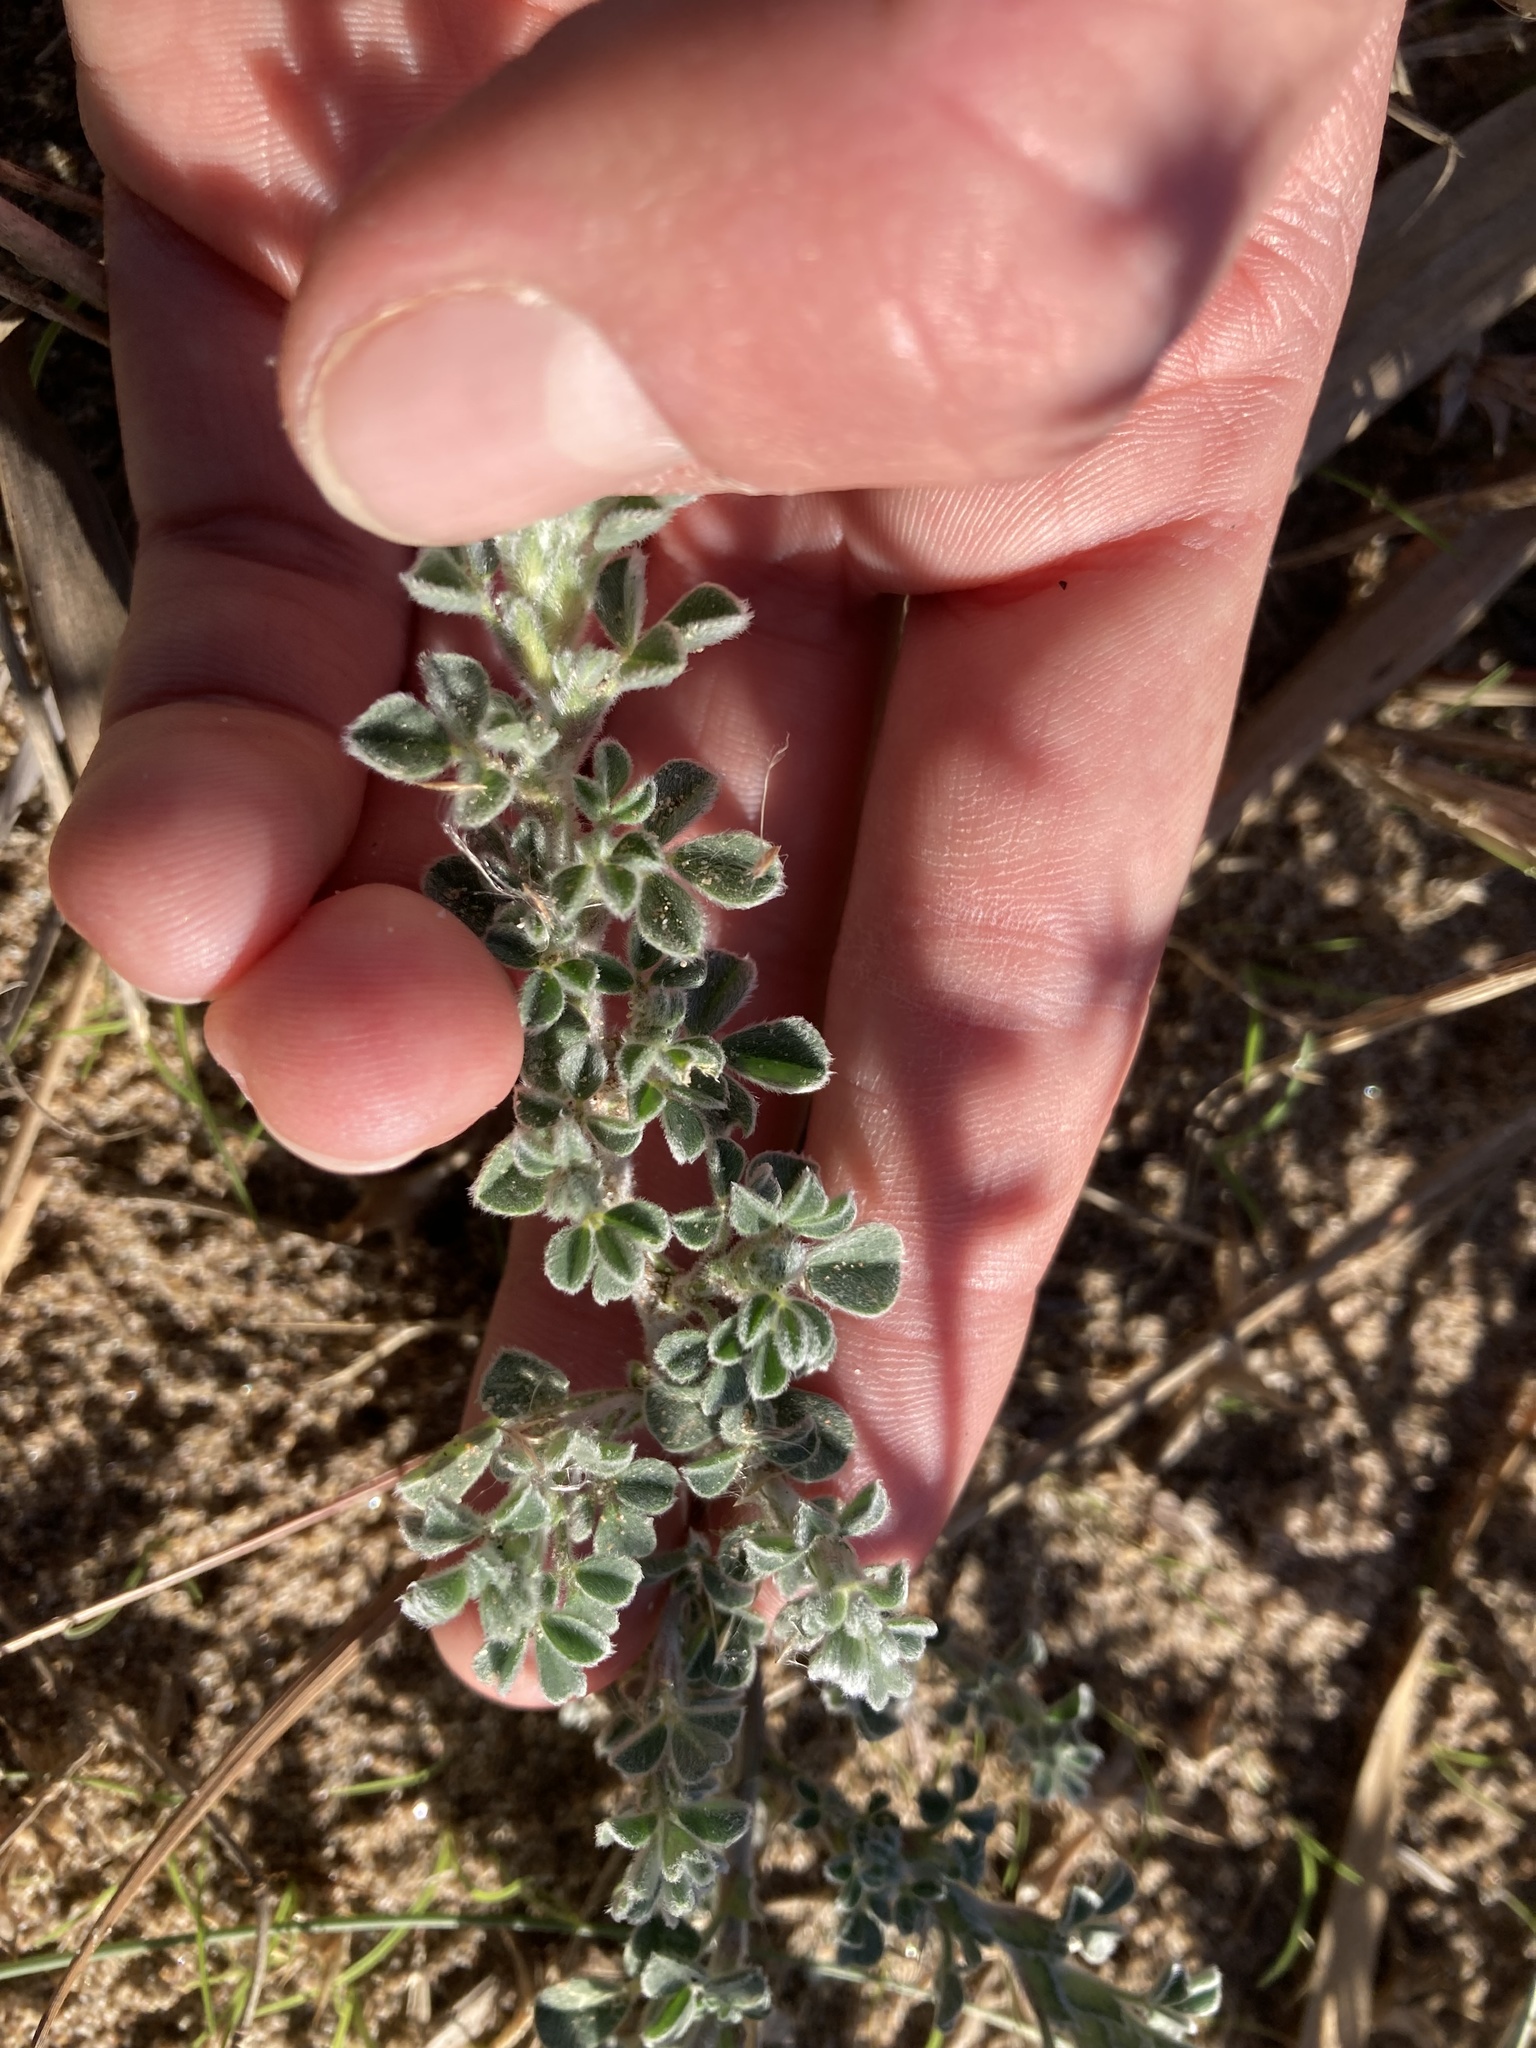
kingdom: Plantae
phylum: Tracheophyta
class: Magnoliopsida
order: Fabales
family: Fabaceae
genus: Medicago
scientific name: Medicago marina
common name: Sea medick
